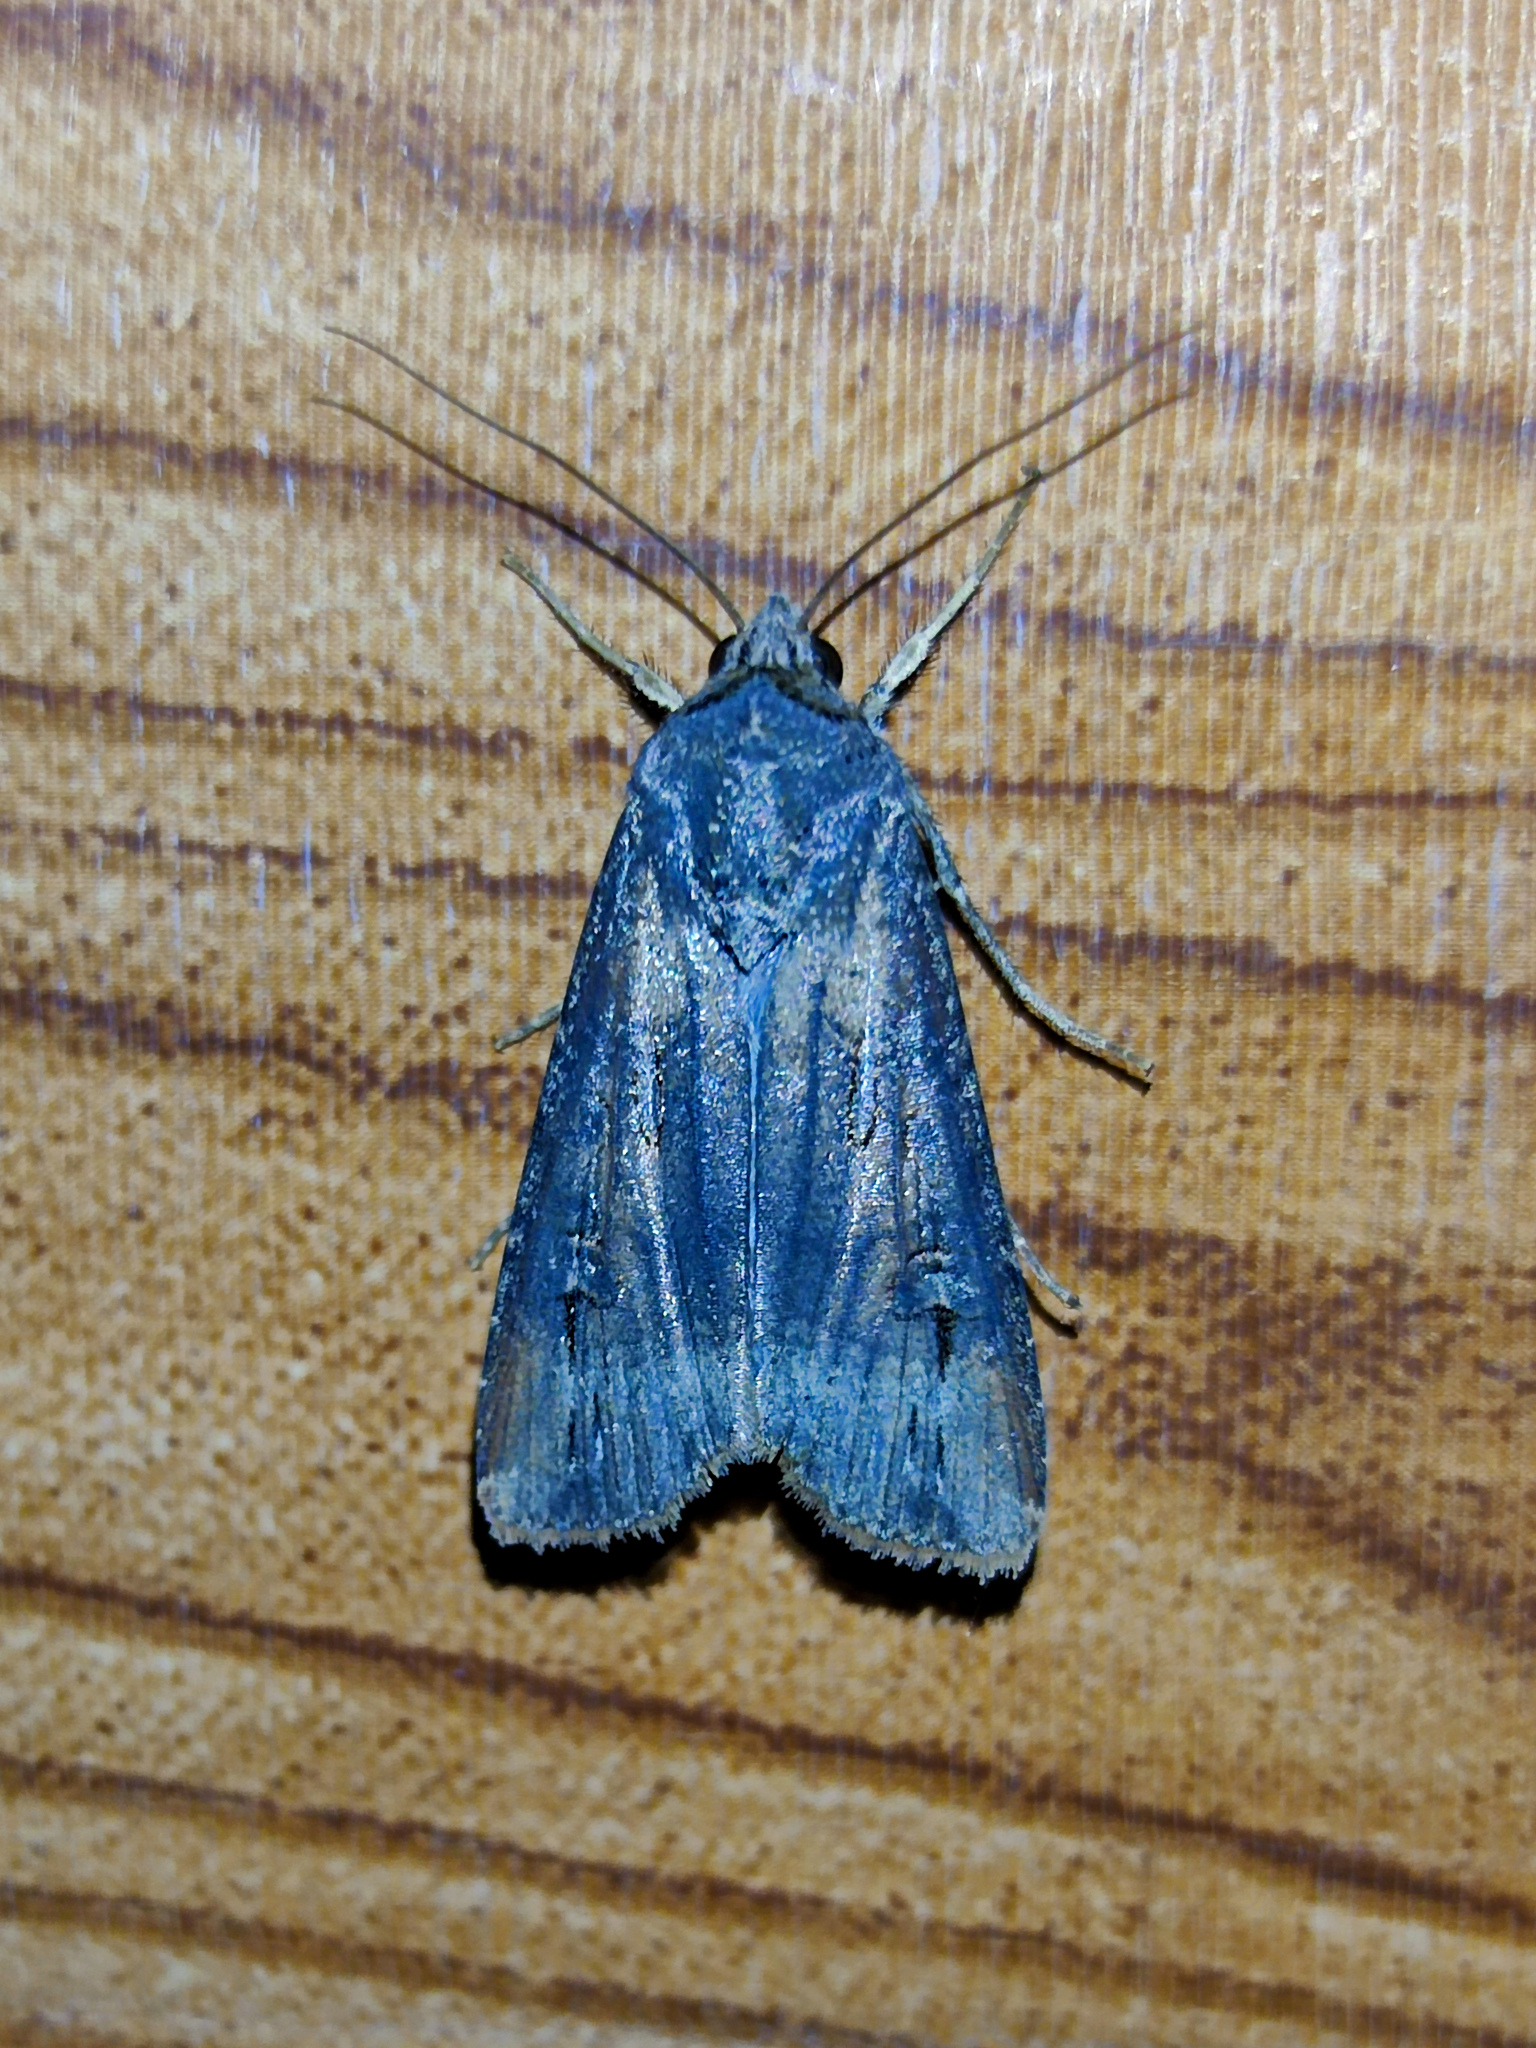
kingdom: Animalia
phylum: Arthropoda
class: Insecta
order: Lepidoptera
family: Noctuidae
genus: Agrotis
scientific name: Agrotis ipsilon
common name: Dark sword-grass
